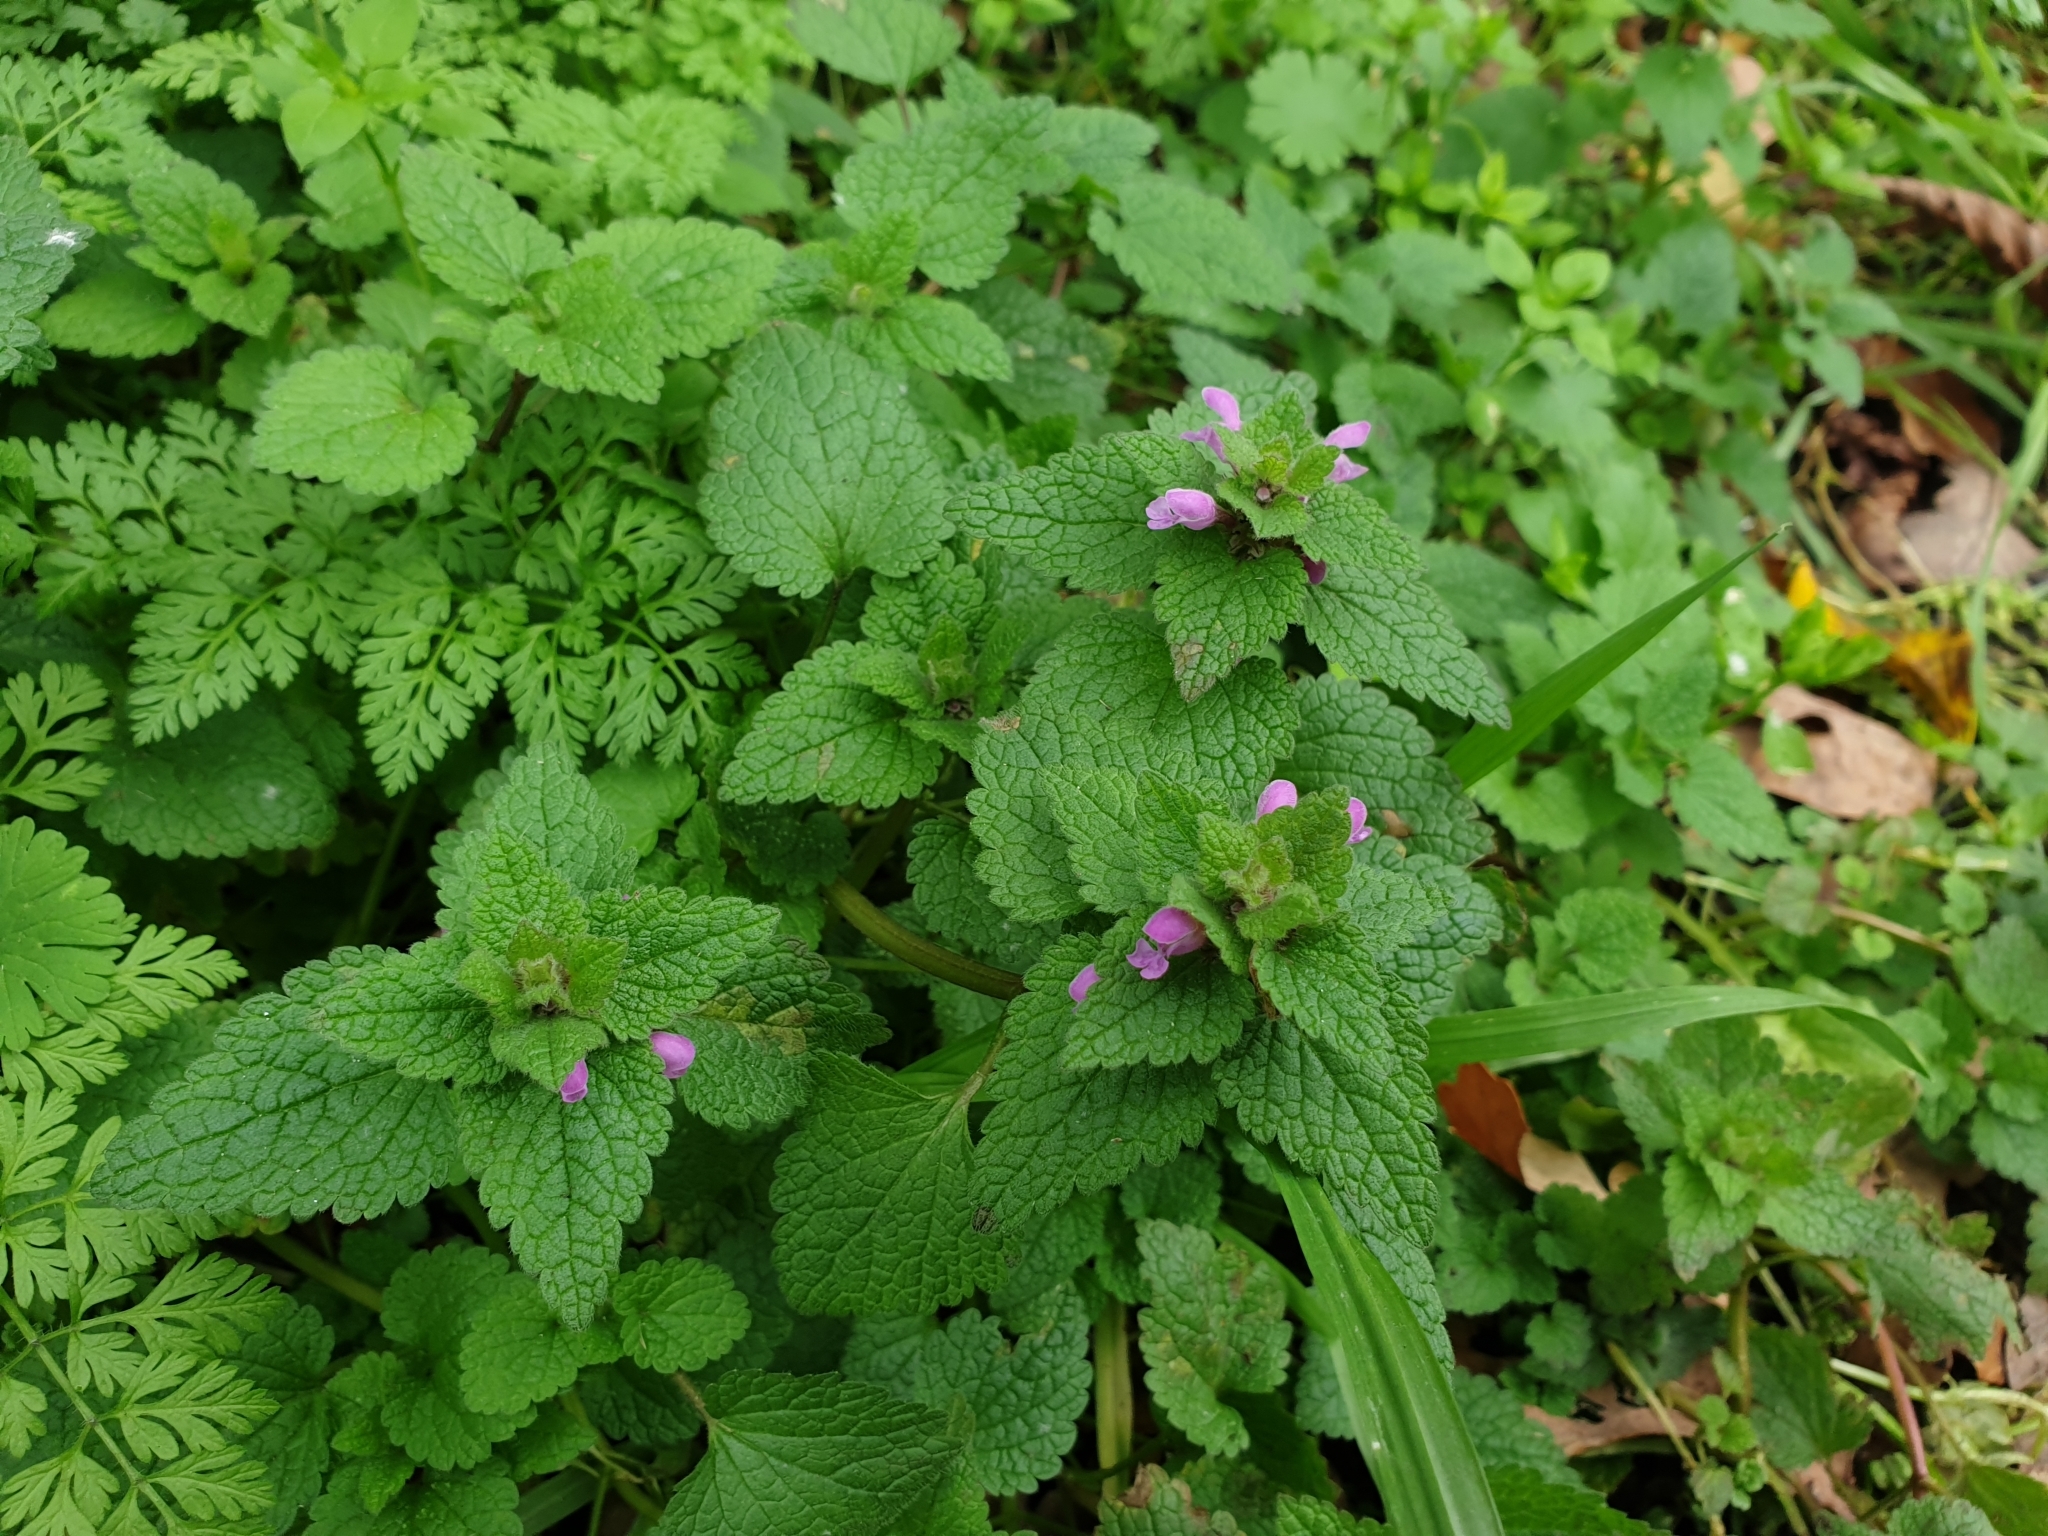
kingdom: Plantae
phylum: Tracheophyta
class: Magnoliopsida
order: Lamiales
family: Lamiaceae
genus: Lamium
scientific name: Lamium purpureum
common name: Red dead-nettle
